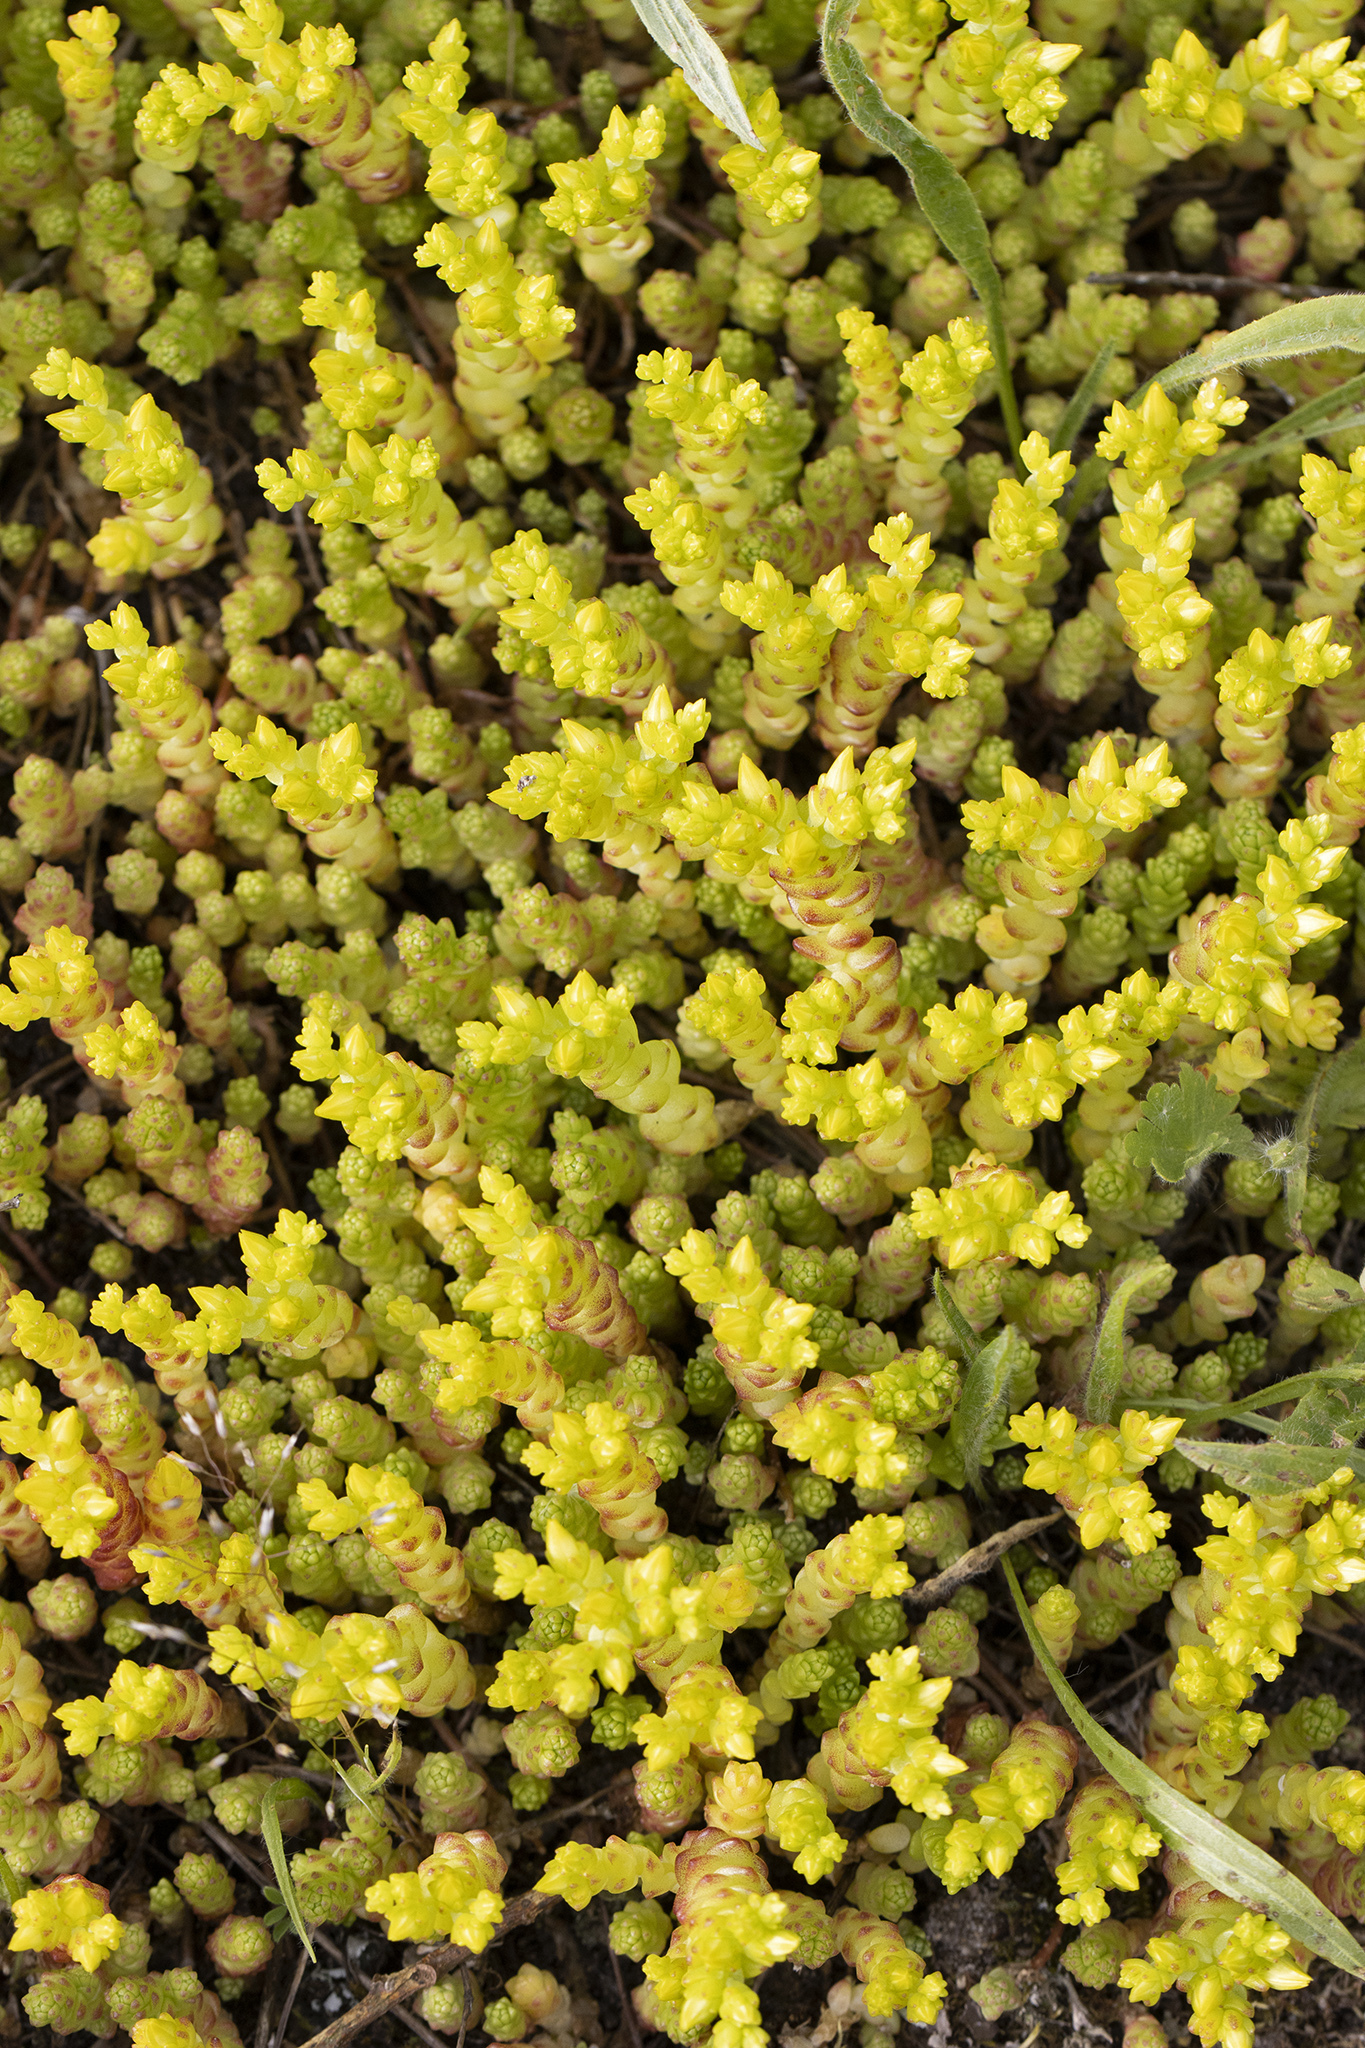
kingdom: Plantae
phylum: Tracheophyta
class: Magnoliopsida
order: Saxifragales
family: Crassulaceae
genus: Sedum
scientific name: Sedum acre
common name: Biting stonecrop
